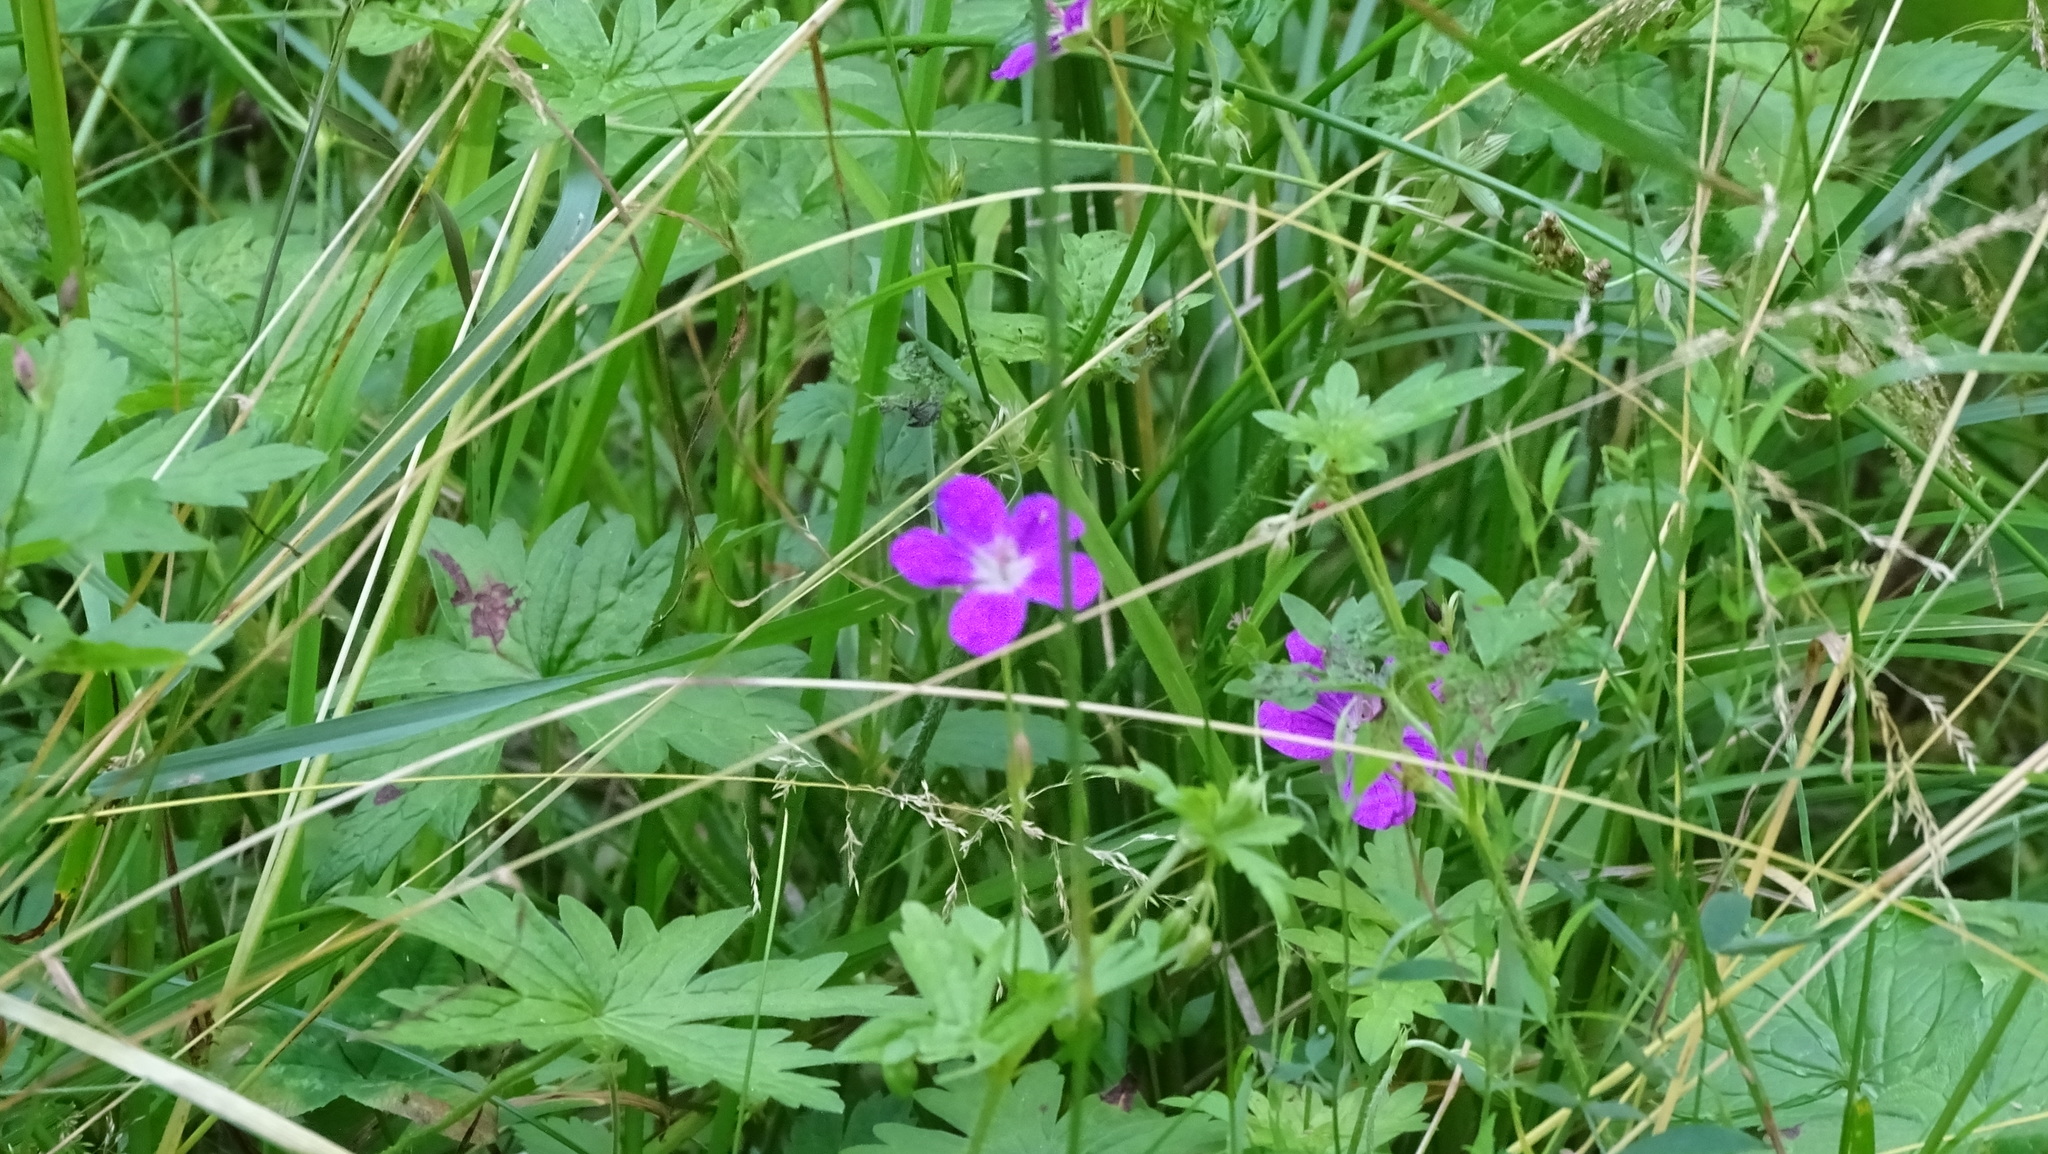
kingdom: Plantae
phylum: Tracheophyta
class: Magnoliopsida
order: Geraniales
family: Geraniaceae
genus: Geranium
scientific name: Geranium palustre
